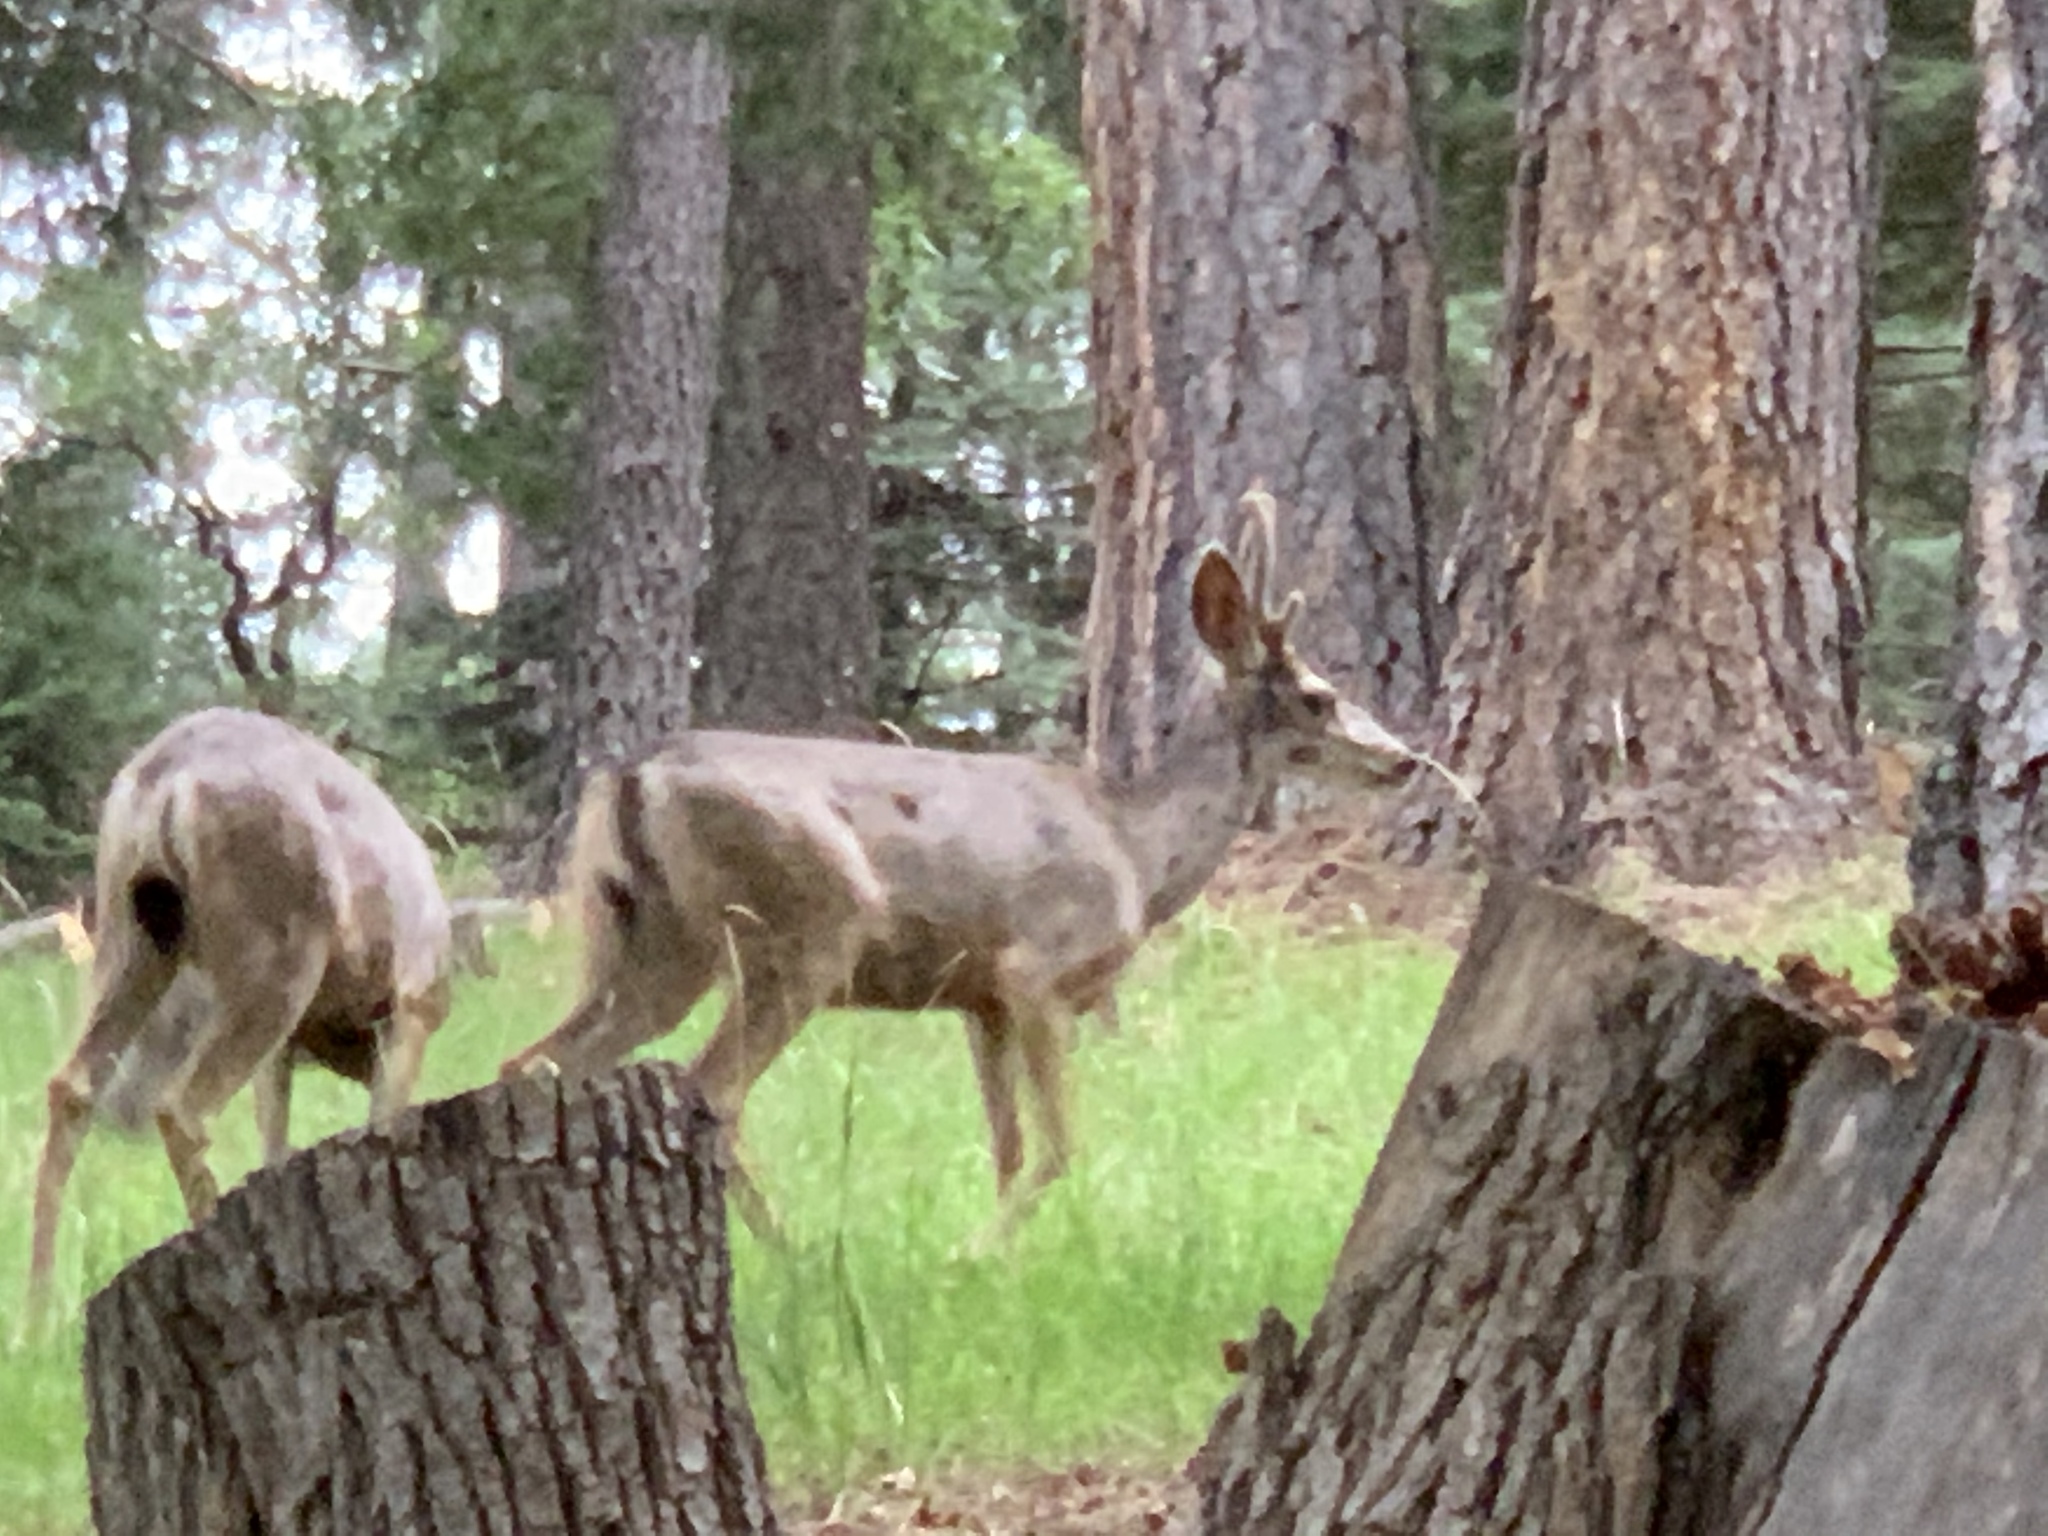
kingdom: Animalia
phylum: Chordata
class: Mammalia
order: Artiodactyla
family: Cervidae
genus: Odocoileus
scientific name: Odocoileus hemionus
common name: Mule deer
